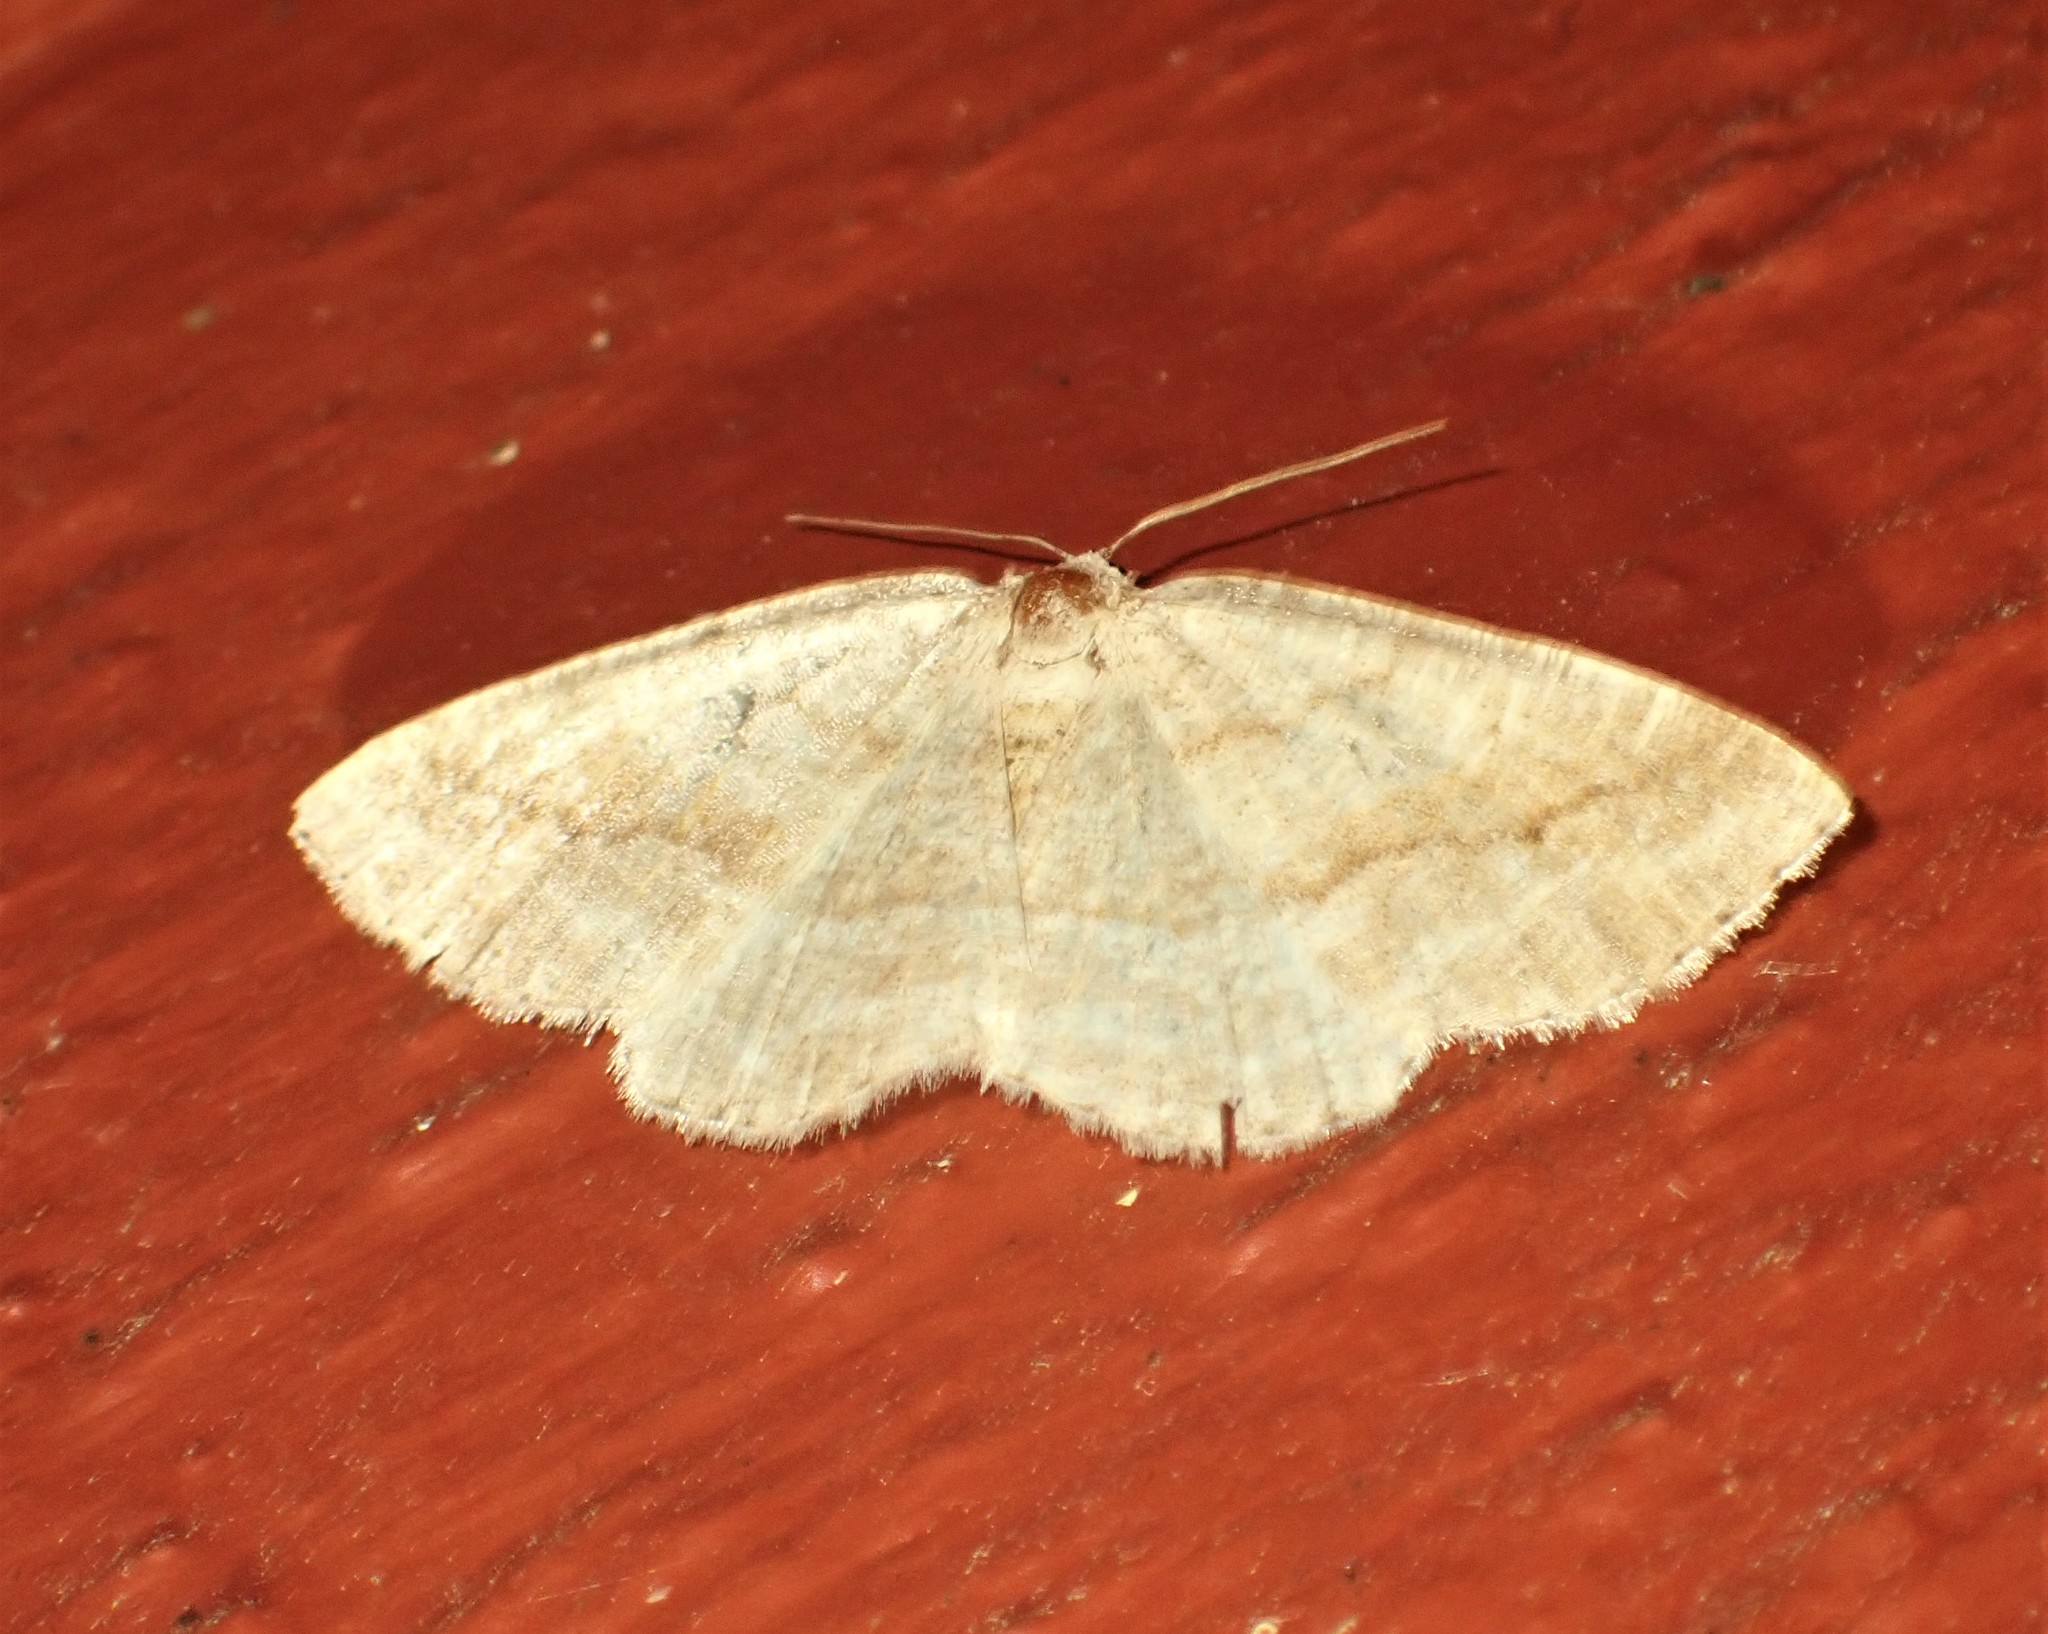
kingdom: Animalia
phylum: Arthropoda
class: Insecta
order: Lepidoptera
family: Geometridae
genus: Tacparia
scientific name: Tacparia detersata
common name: Pale alder moth
